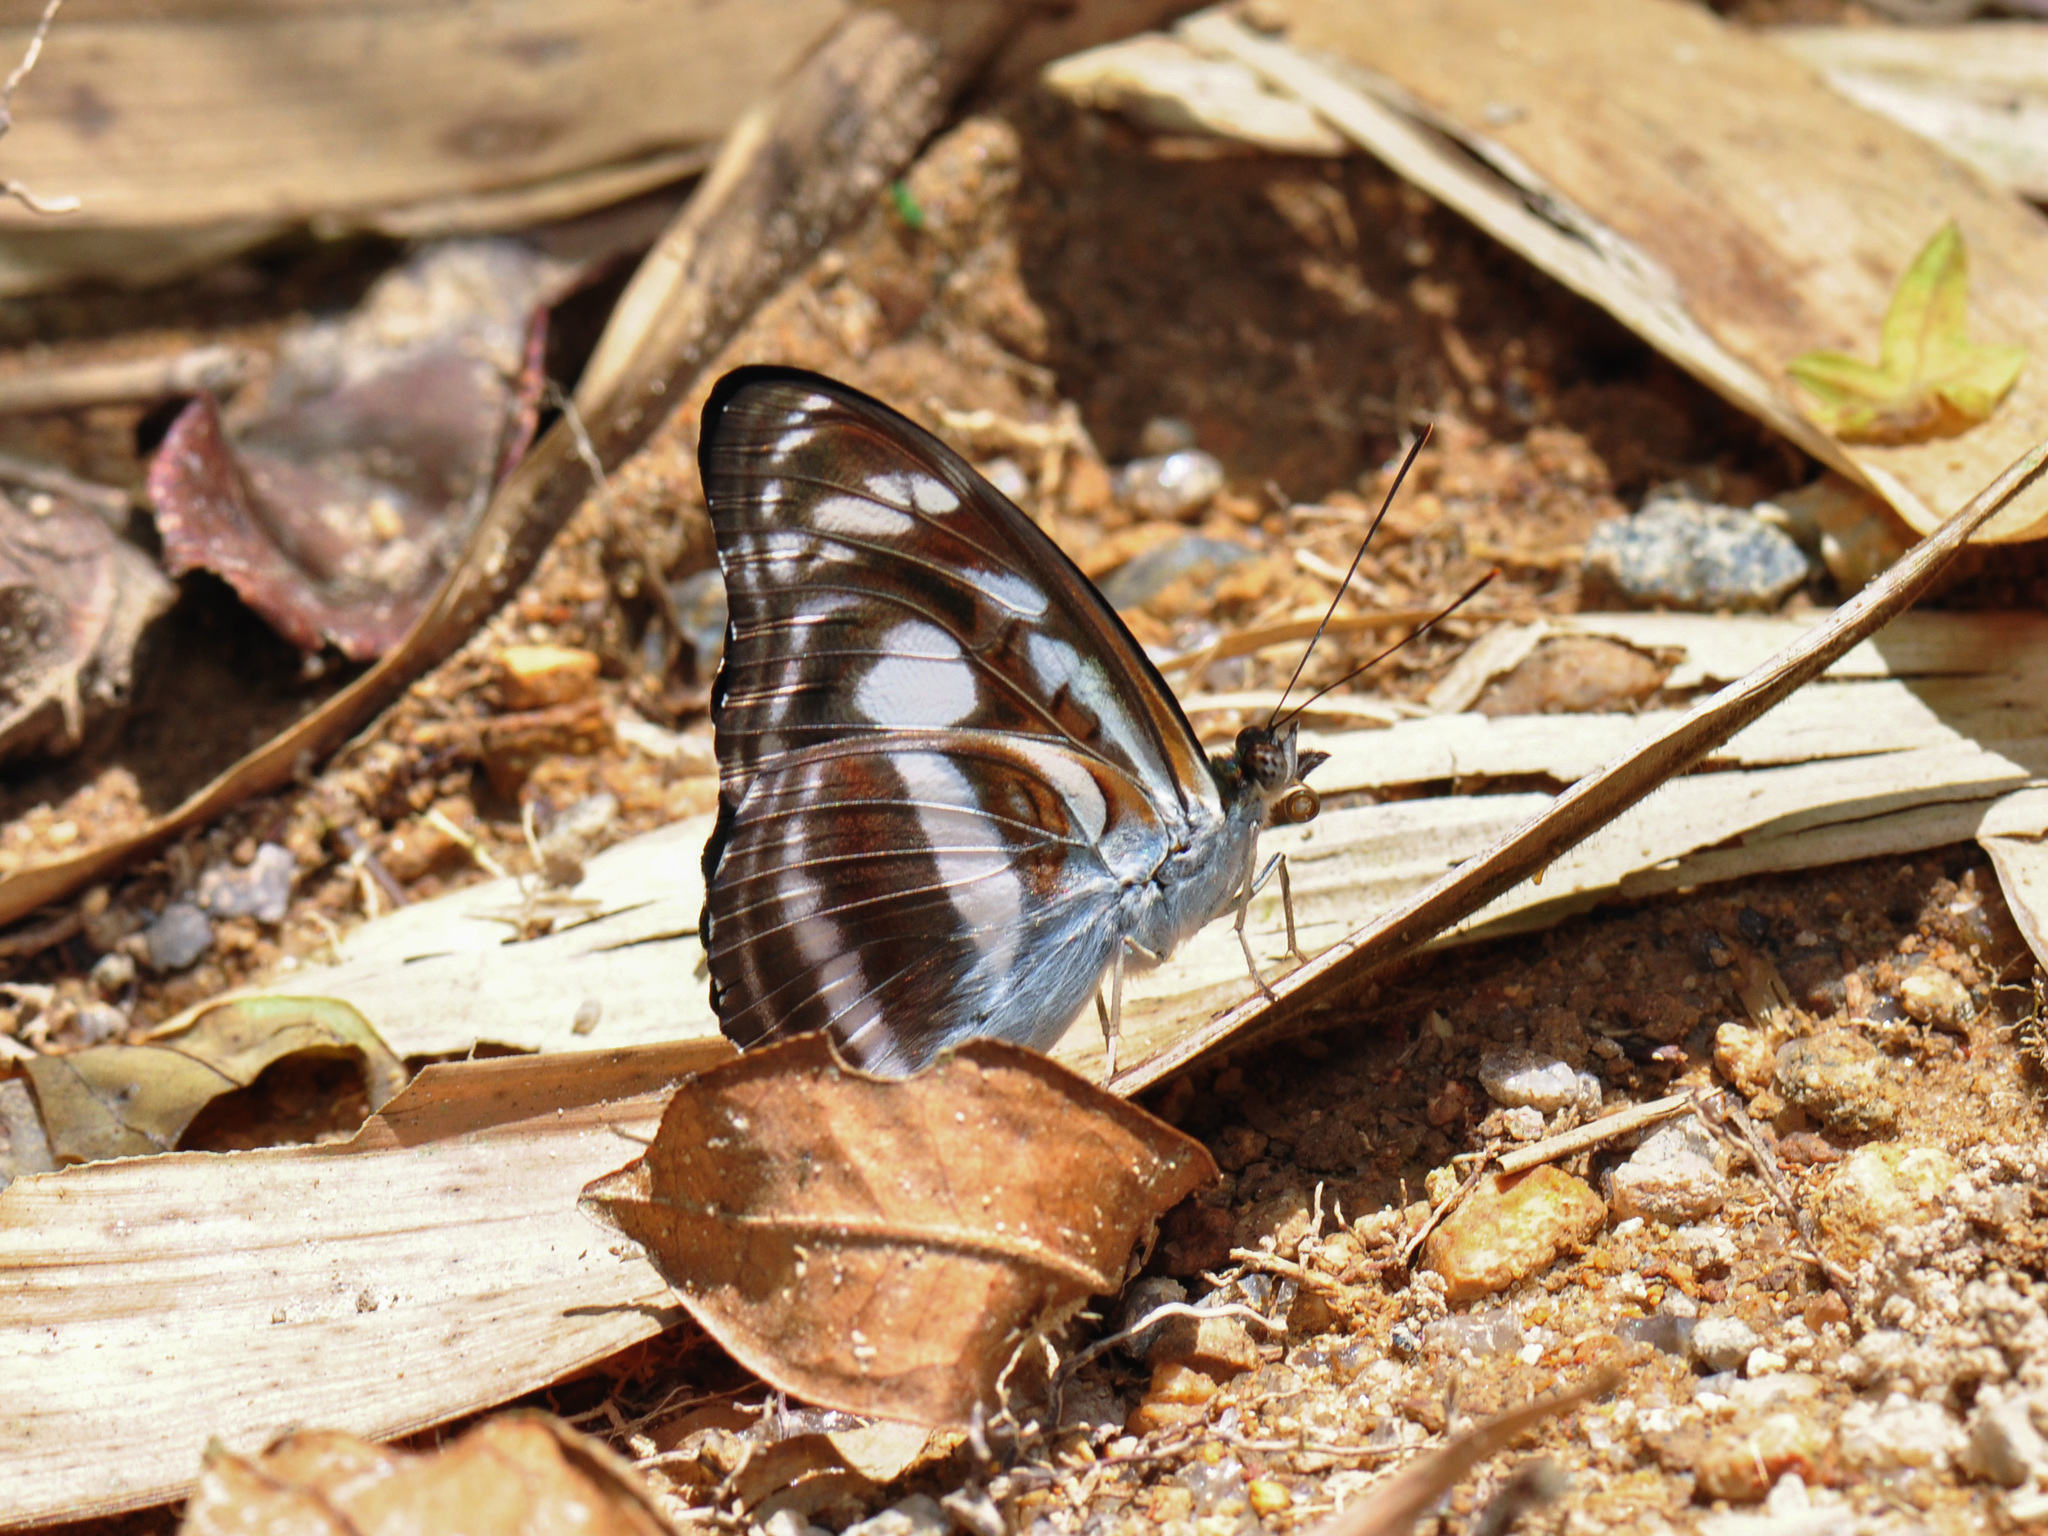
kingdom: Animalia
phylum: Arthropoda
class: Insecta
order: Lepidoptera
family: Nymphalidae
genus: Parathyma
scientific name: Parathyma selenophora
